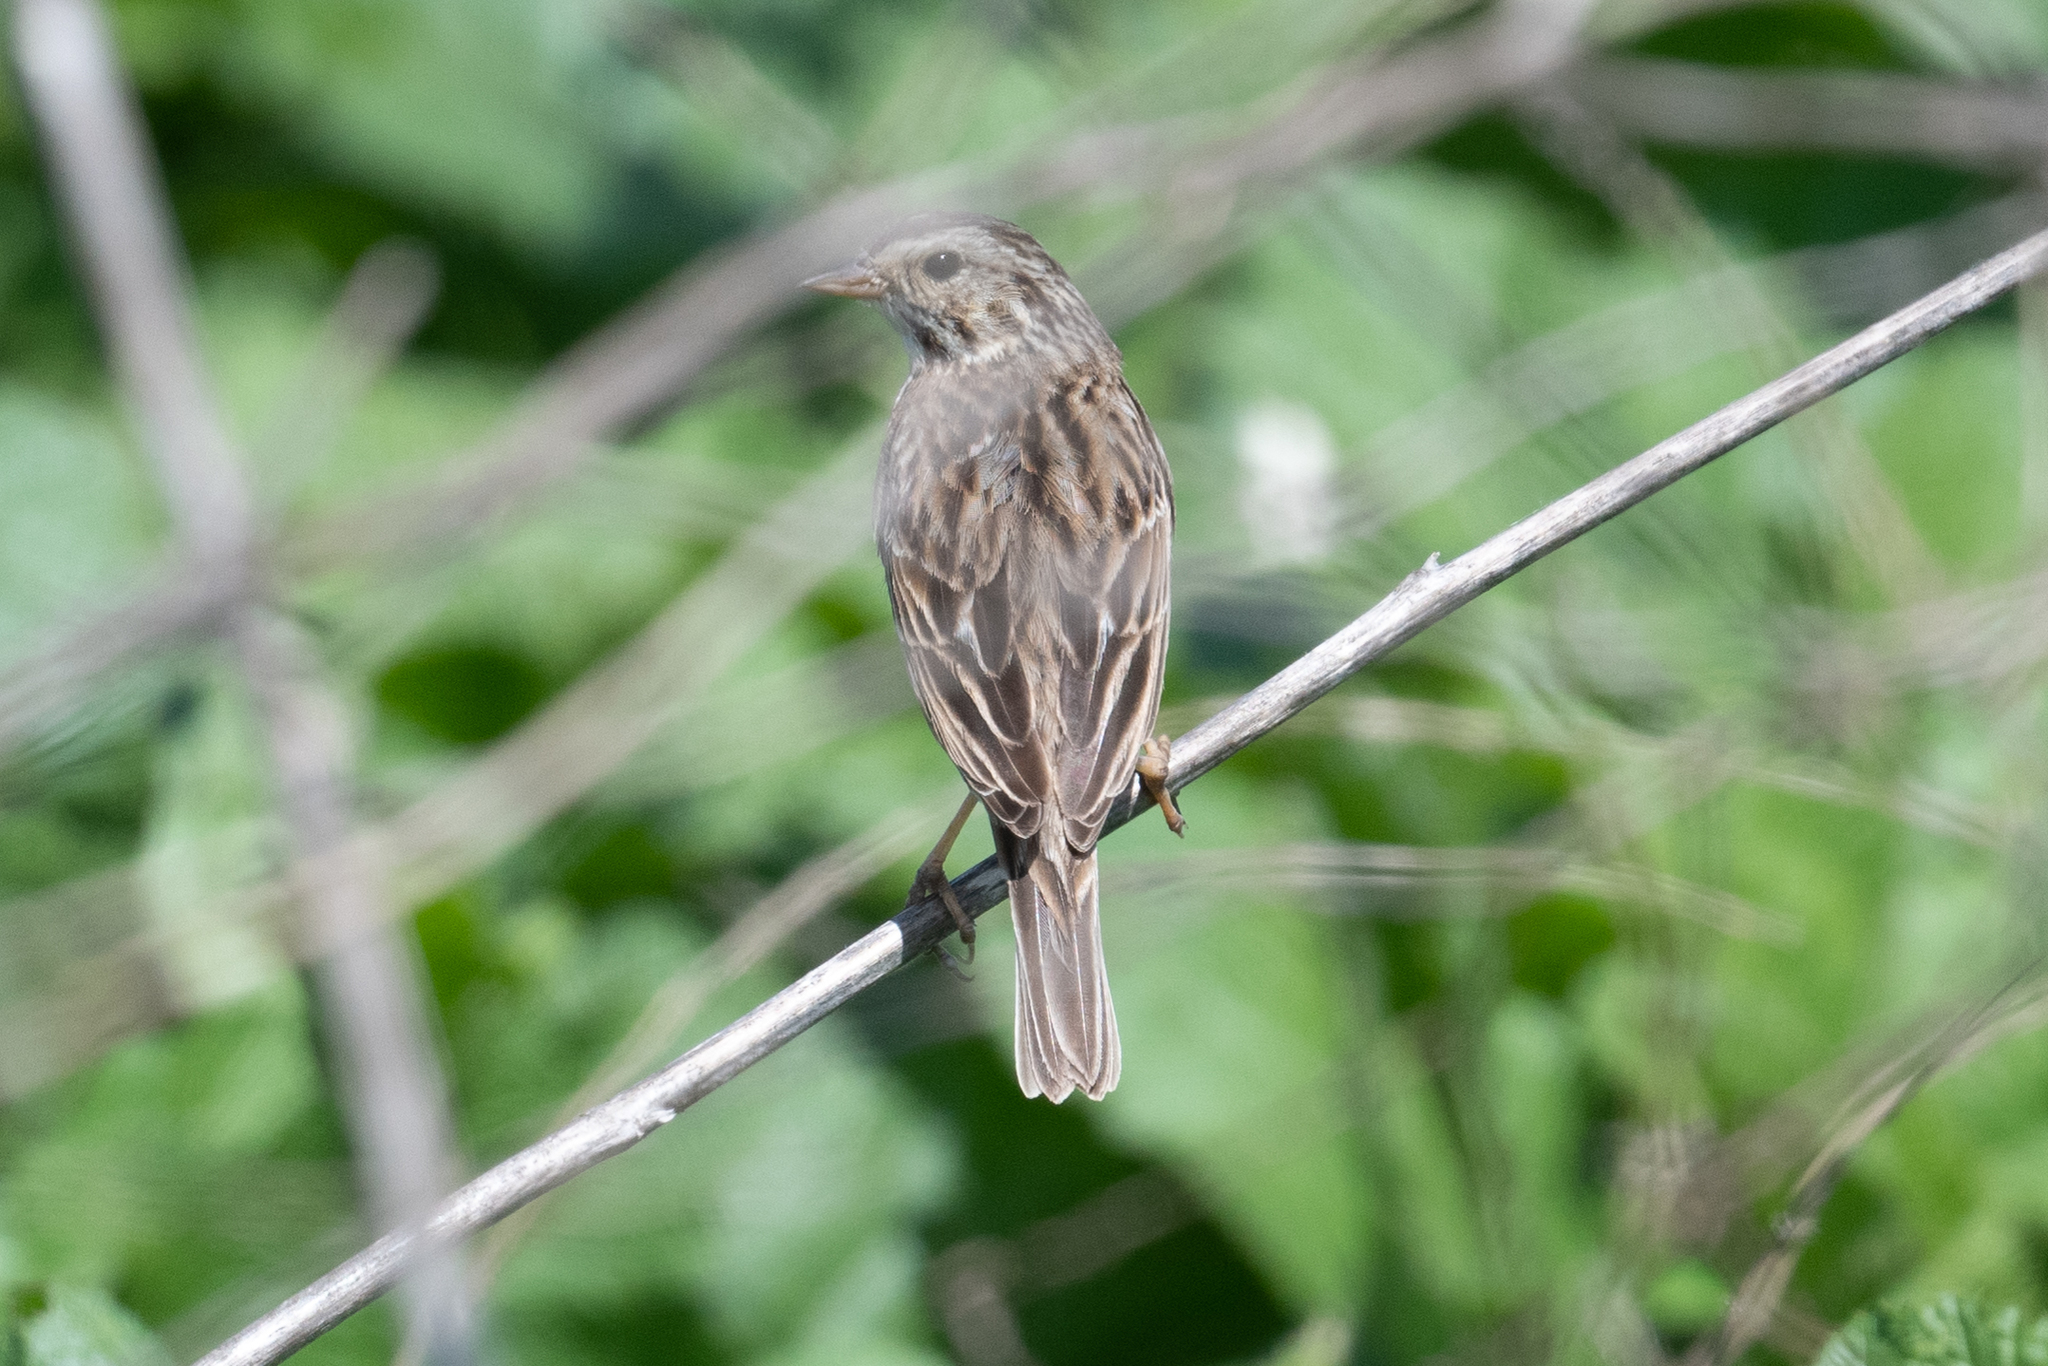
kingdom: Animalia
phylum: Chordata
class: Aves
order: Passeriformes
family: Passerellidae
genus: Passerculus
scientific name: Passerculus sandwichensis
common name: Savannah sparrow
